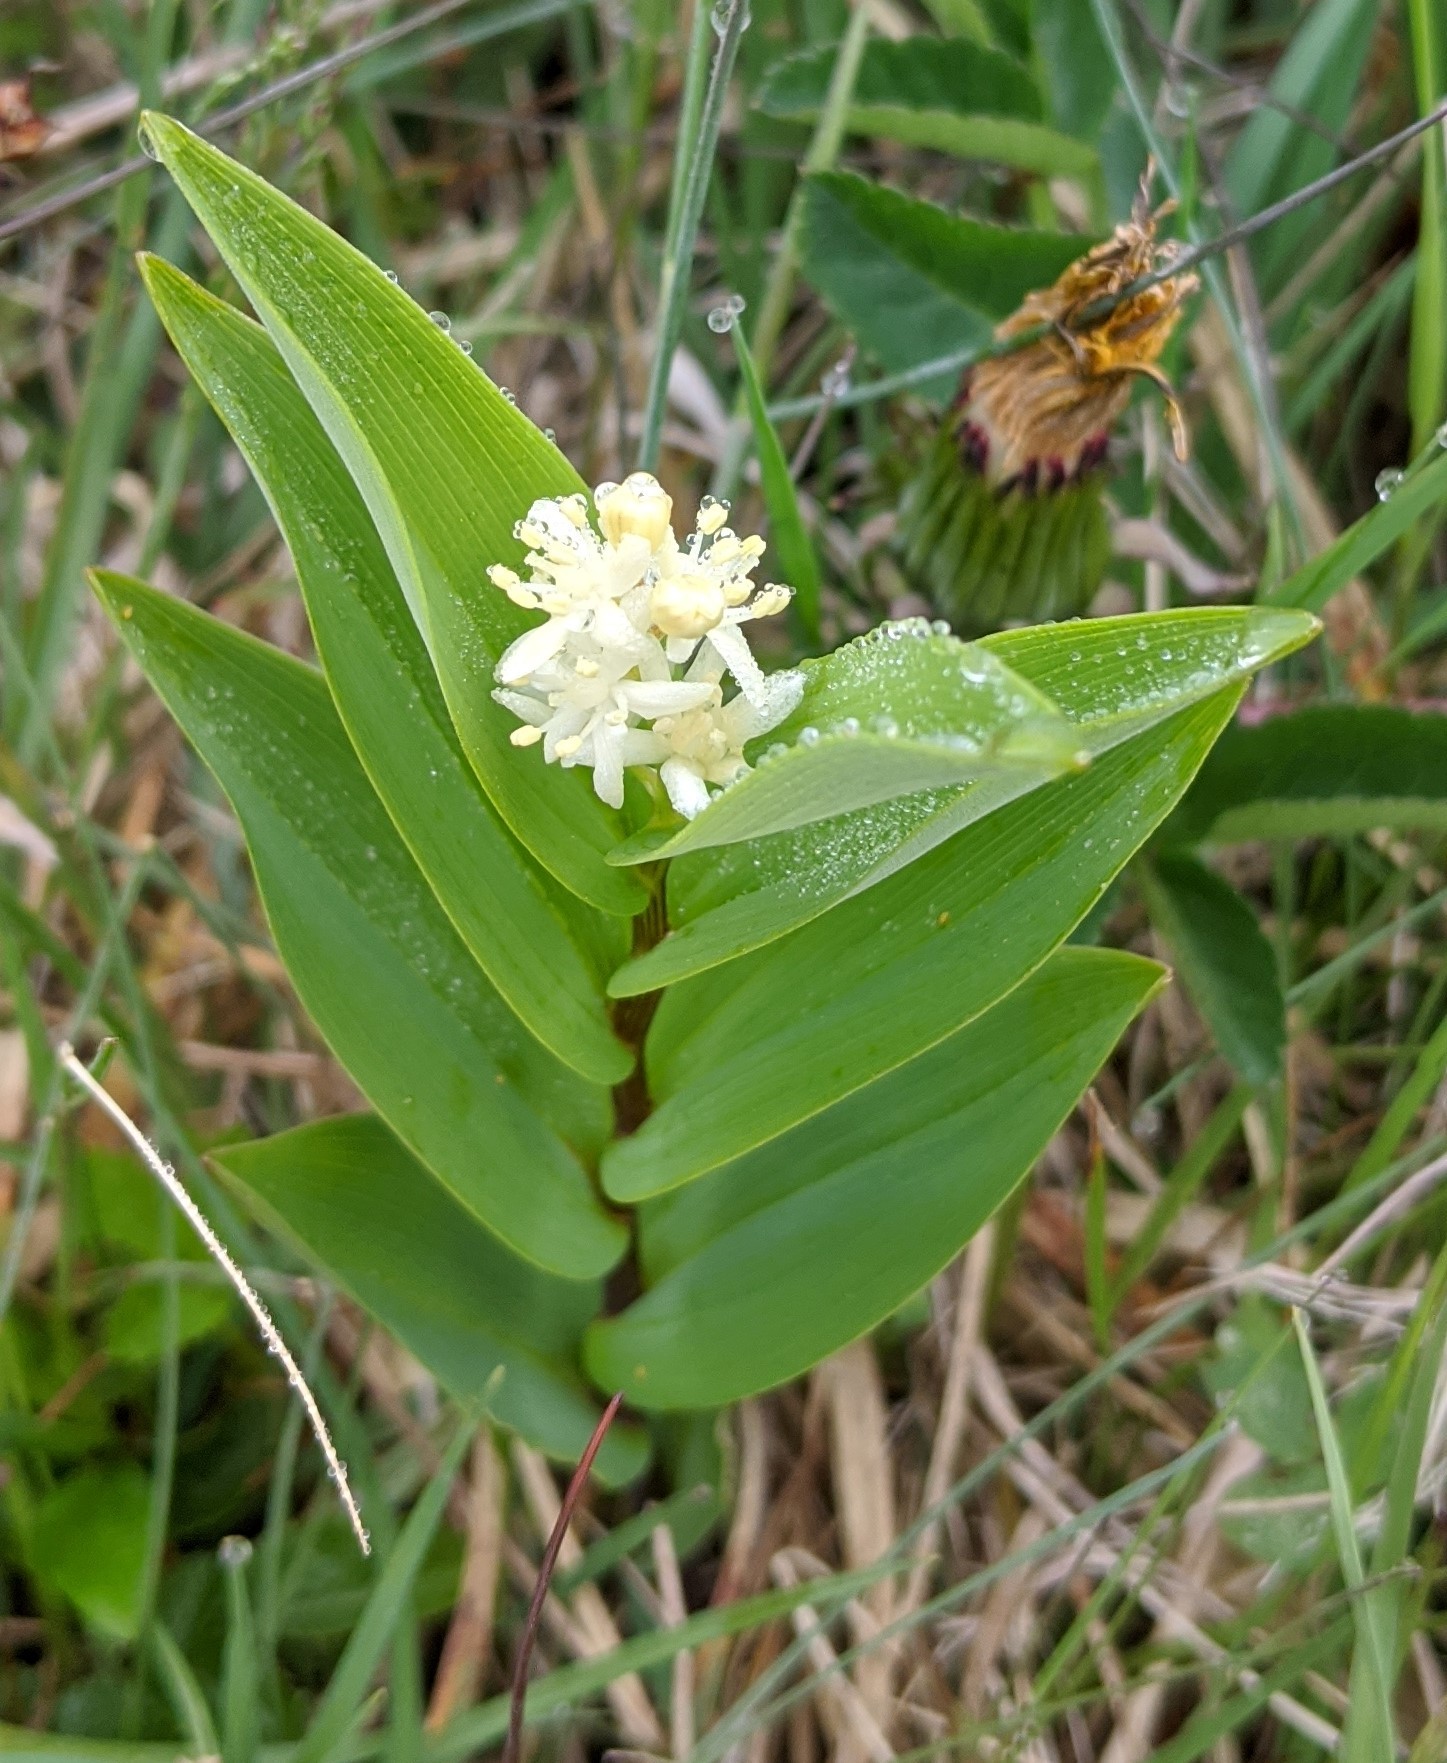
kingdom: Plantae
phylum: Tracheophyta
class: Liliopsida
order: Asparagales
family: Asparagaceae
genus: Maianthemum
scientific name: Maianthemum stellatum
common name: Little false solomon's seal
